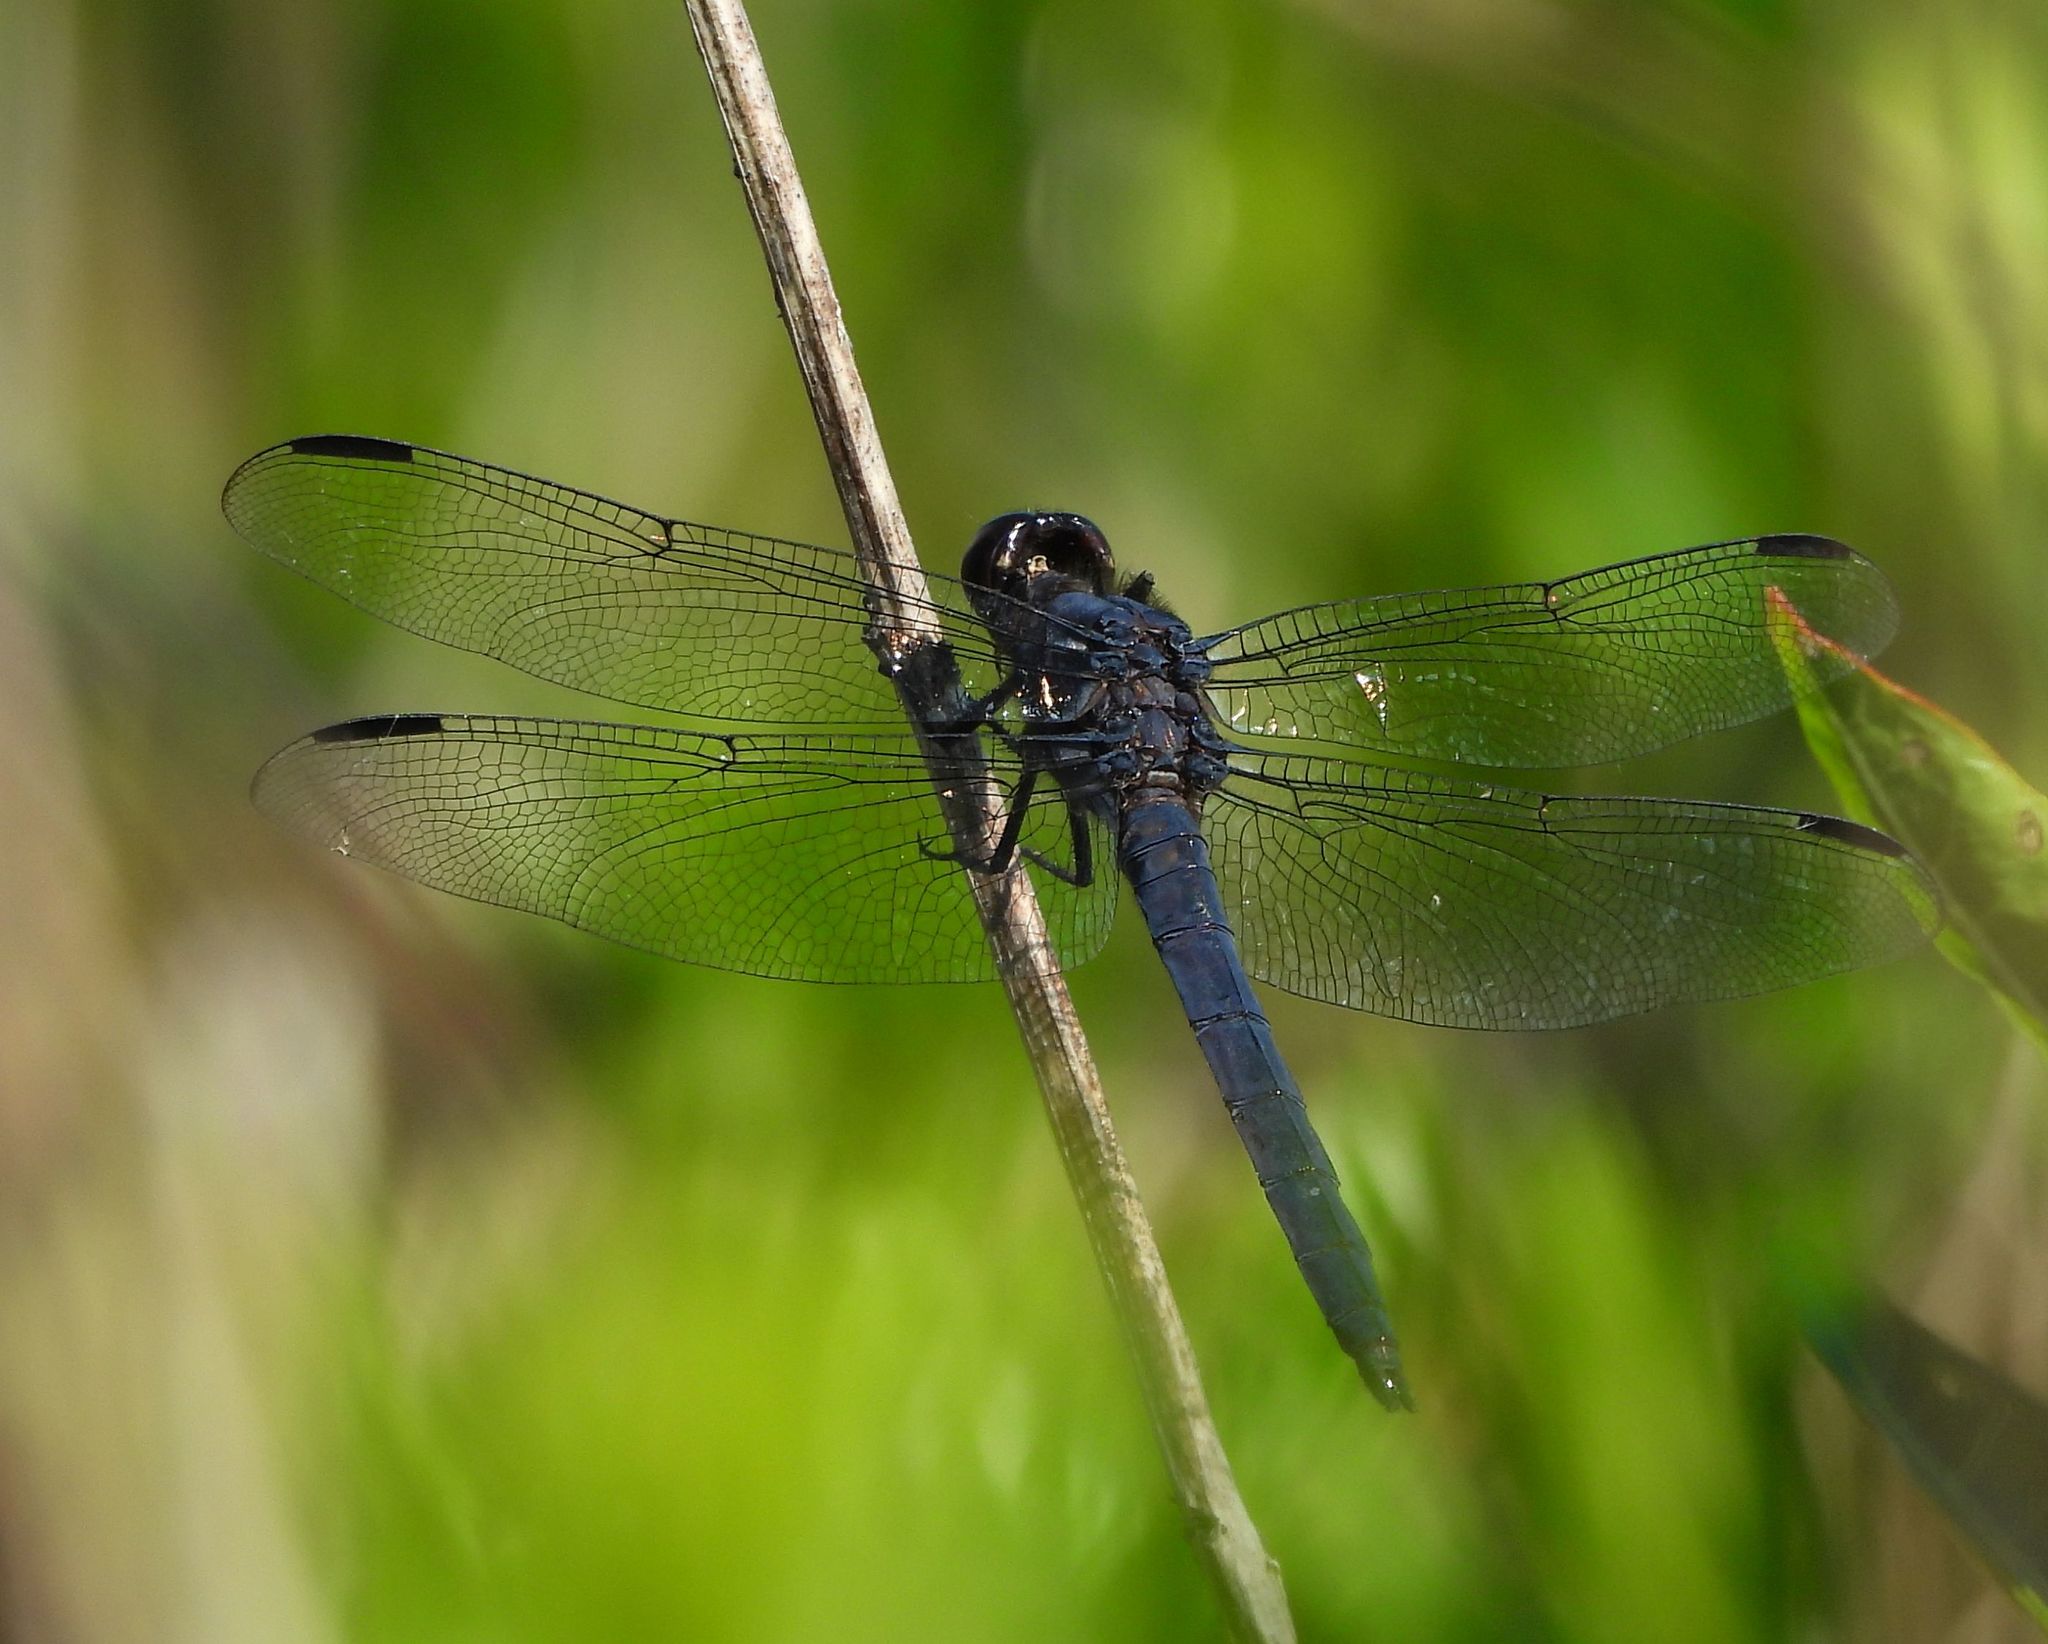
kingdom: Animalia
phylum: Arthropoda
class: Insecta
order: Odonata
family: Libellulidae
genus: Libellula
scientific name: Libellula incesta
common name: Slaty skimmer
